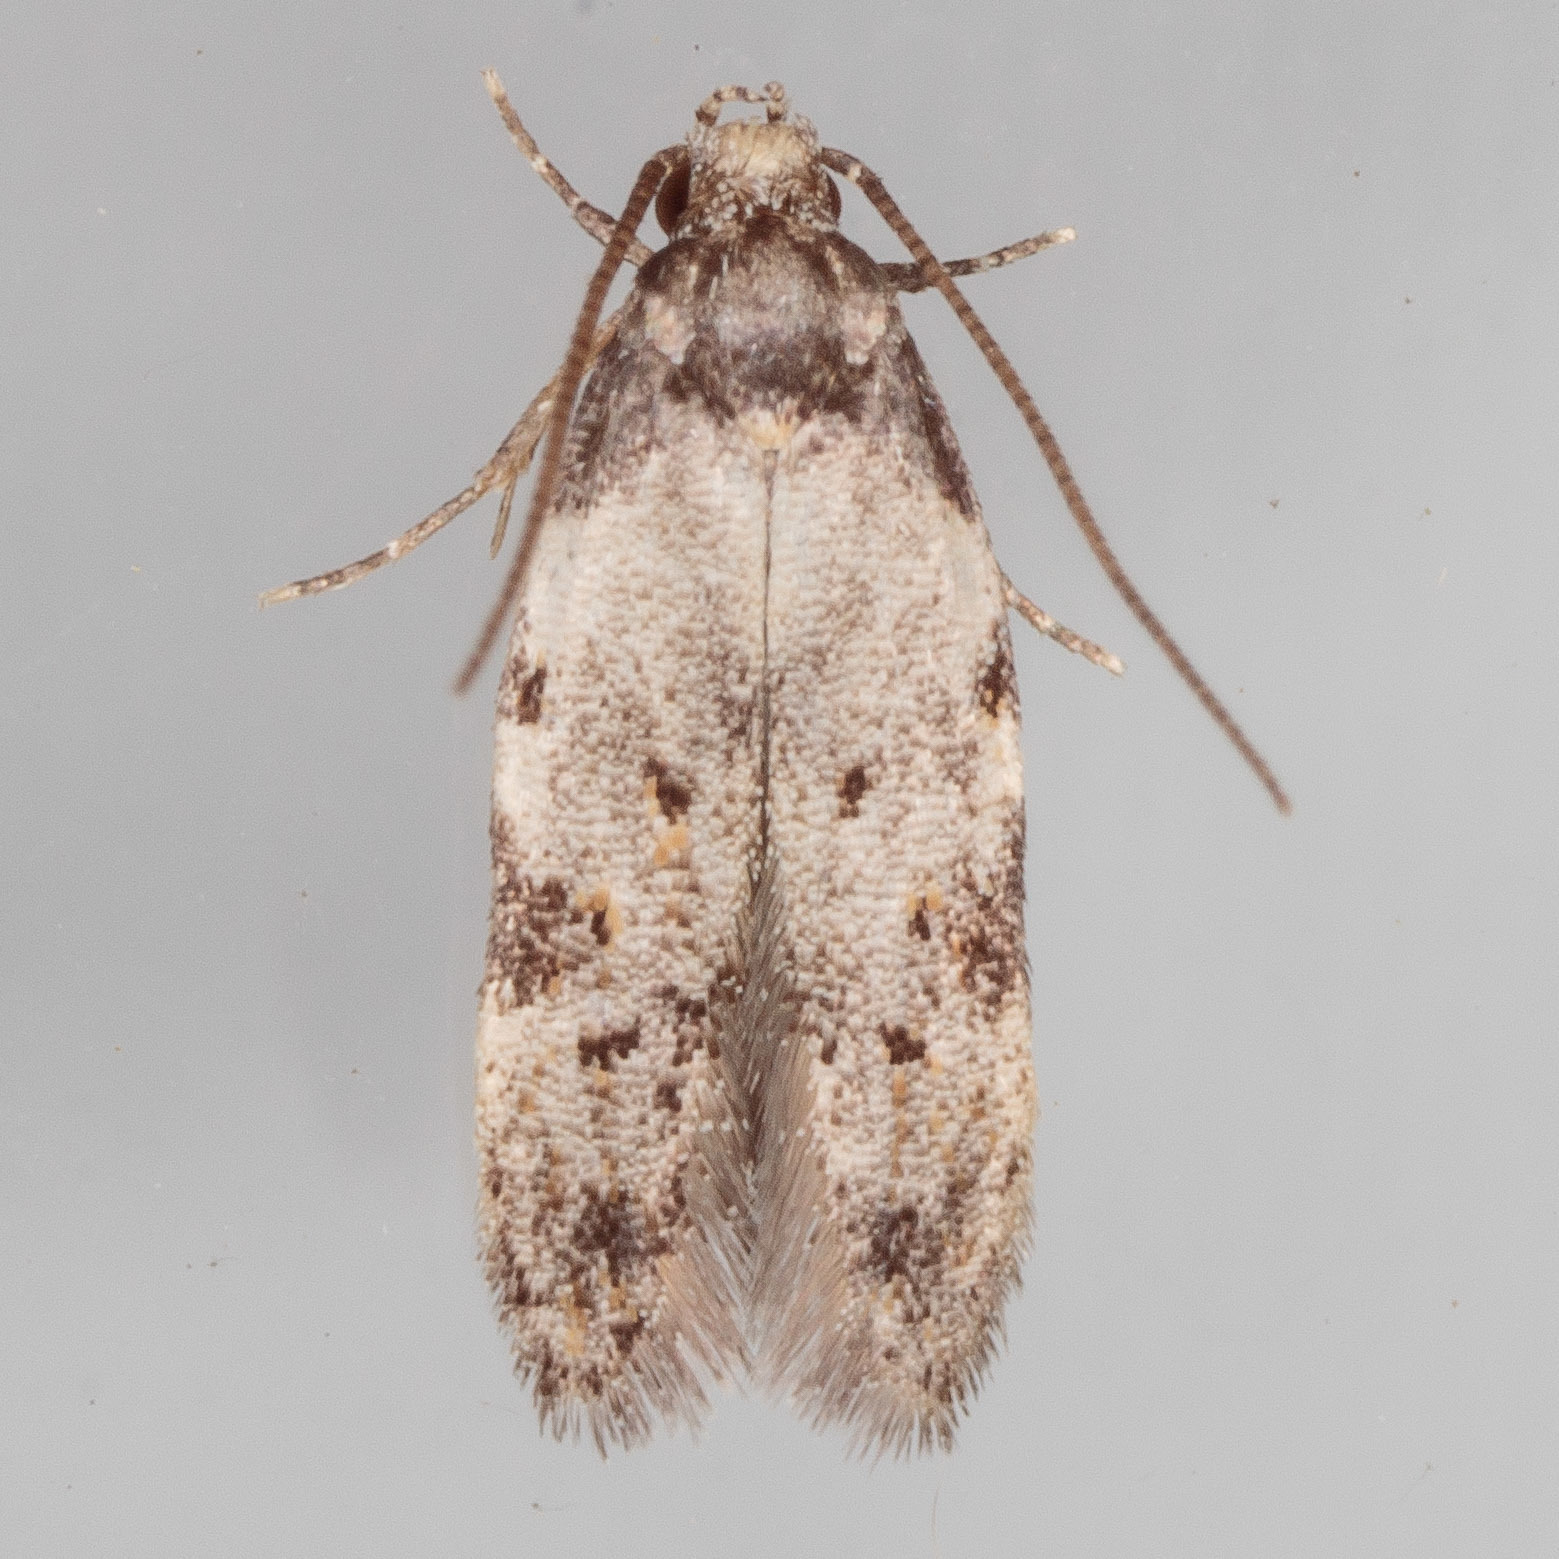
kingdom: Animalia
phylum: Arthropoda
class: Insecta
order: Lepidoptera
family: Autostichidae
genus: Taygete
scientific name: Taygete attributella
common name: Triangle-marked twirler moth
